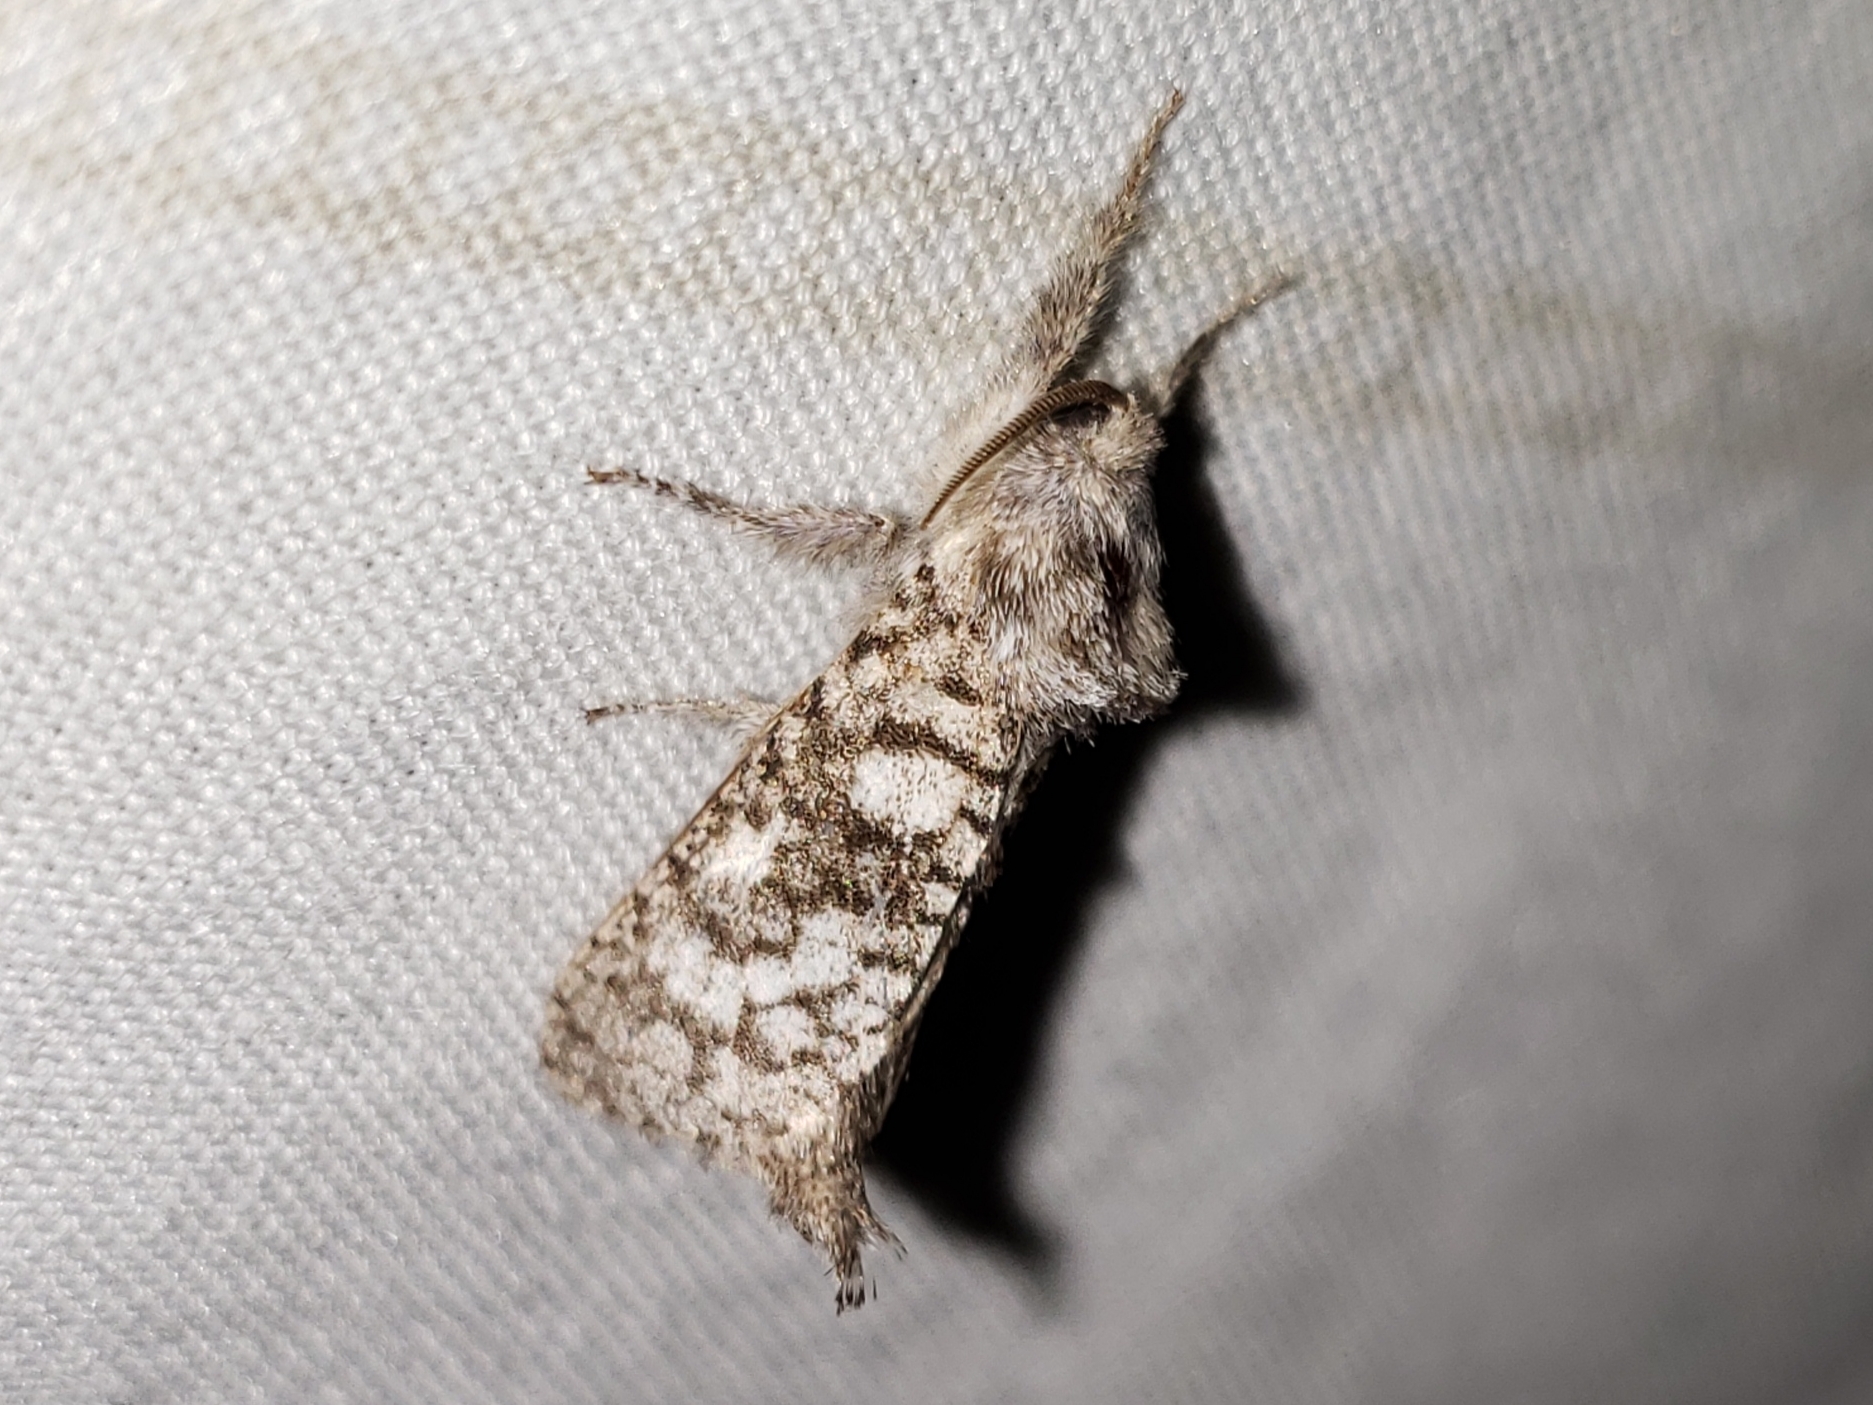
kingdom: Animalia
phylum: Arthropoda
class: Insecta
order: Lepidoptera
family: Cossidae
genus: Givira
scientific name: Givira francesca
